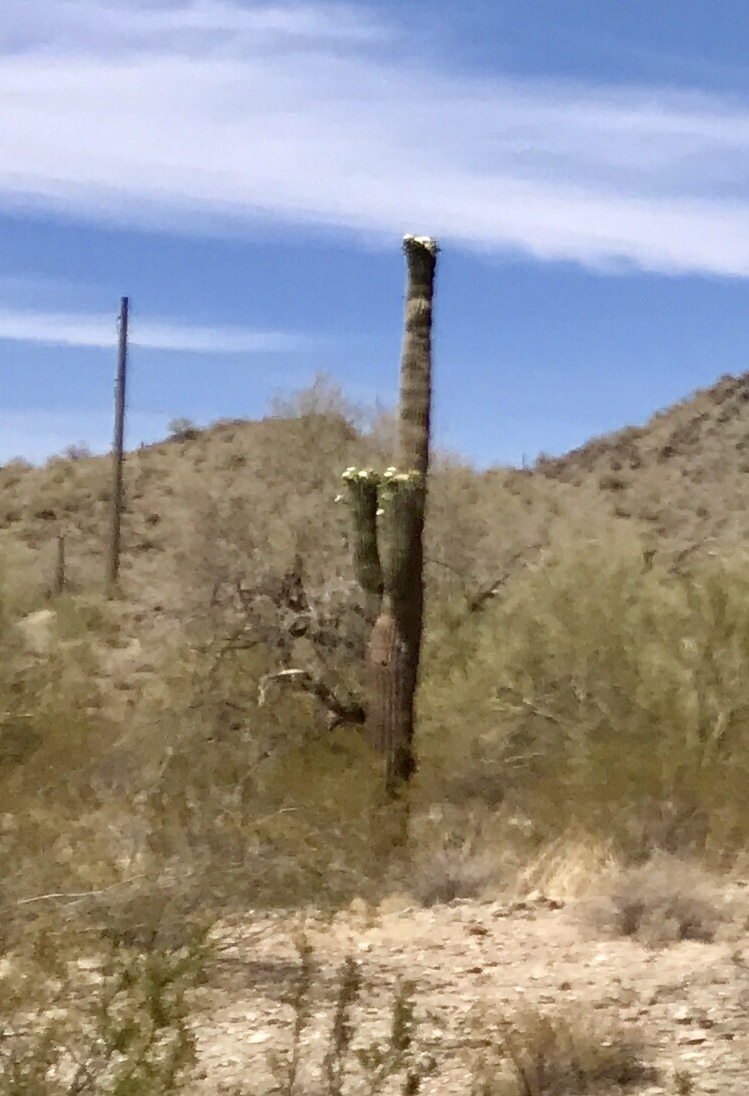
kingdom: Plantae
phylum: Tracheophyta
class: Magnoliopsida
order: Caryophyllales
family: Cactaceae
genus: Carnegiea
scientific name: Carnegiea gigantea
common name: Saguaro
